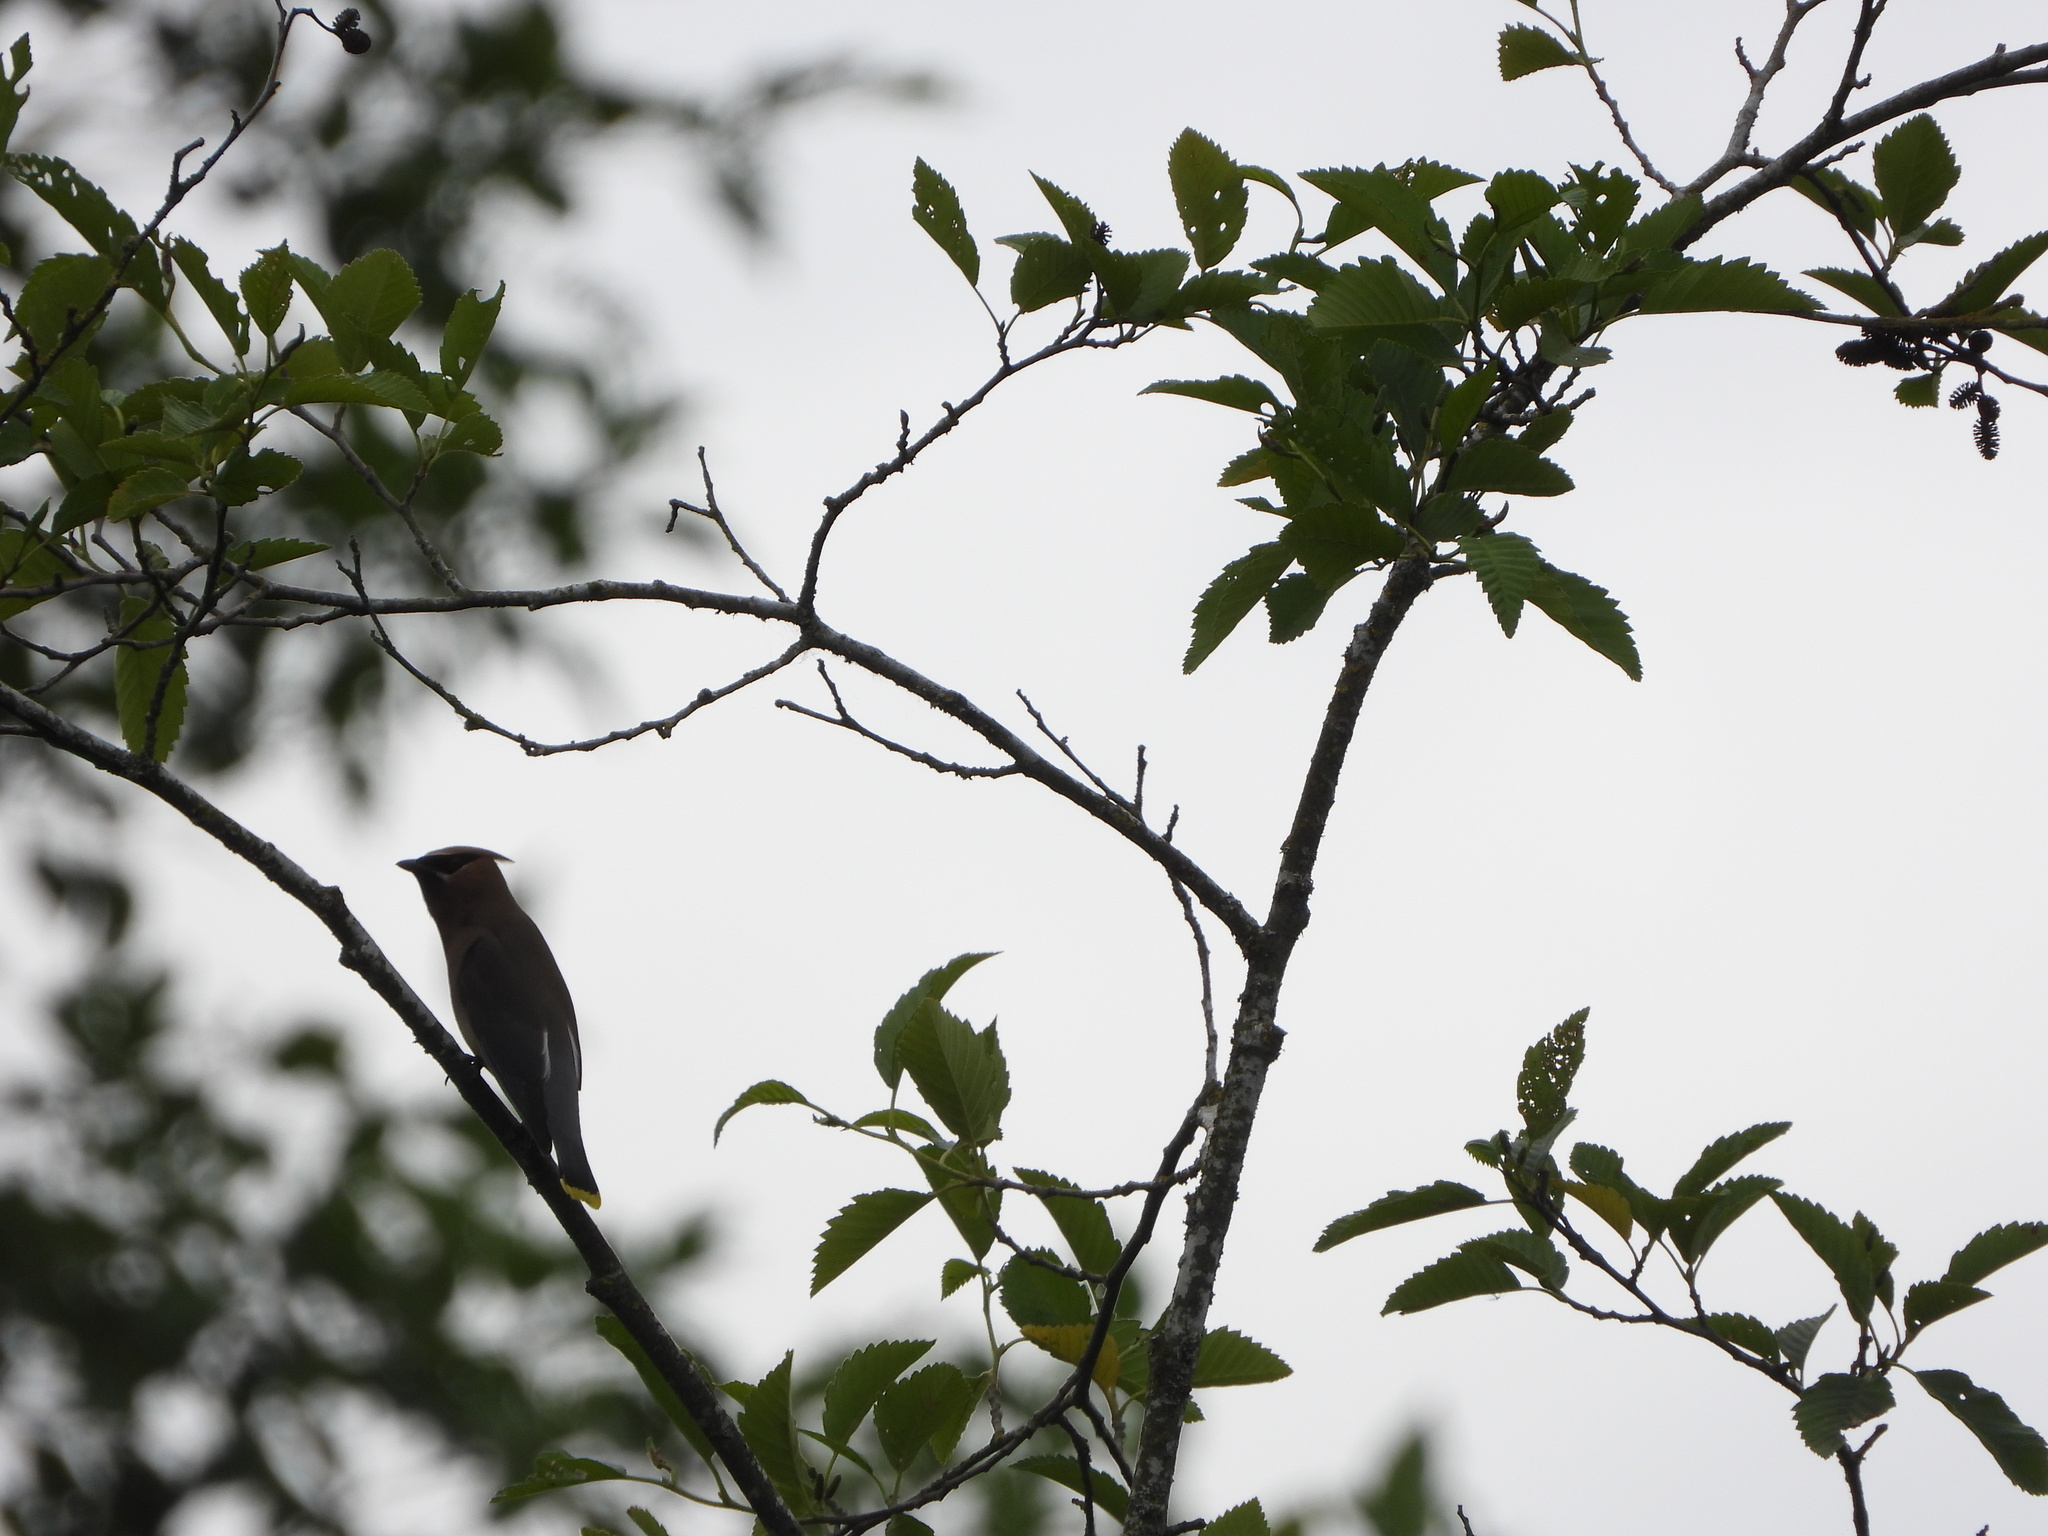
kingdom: Animalia
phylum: Chordata
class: Aves
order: Passeriformes
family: Bombycillidae
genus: Bombycilla
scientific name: Bombycilla cedrorum
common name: Cedar waxwing
